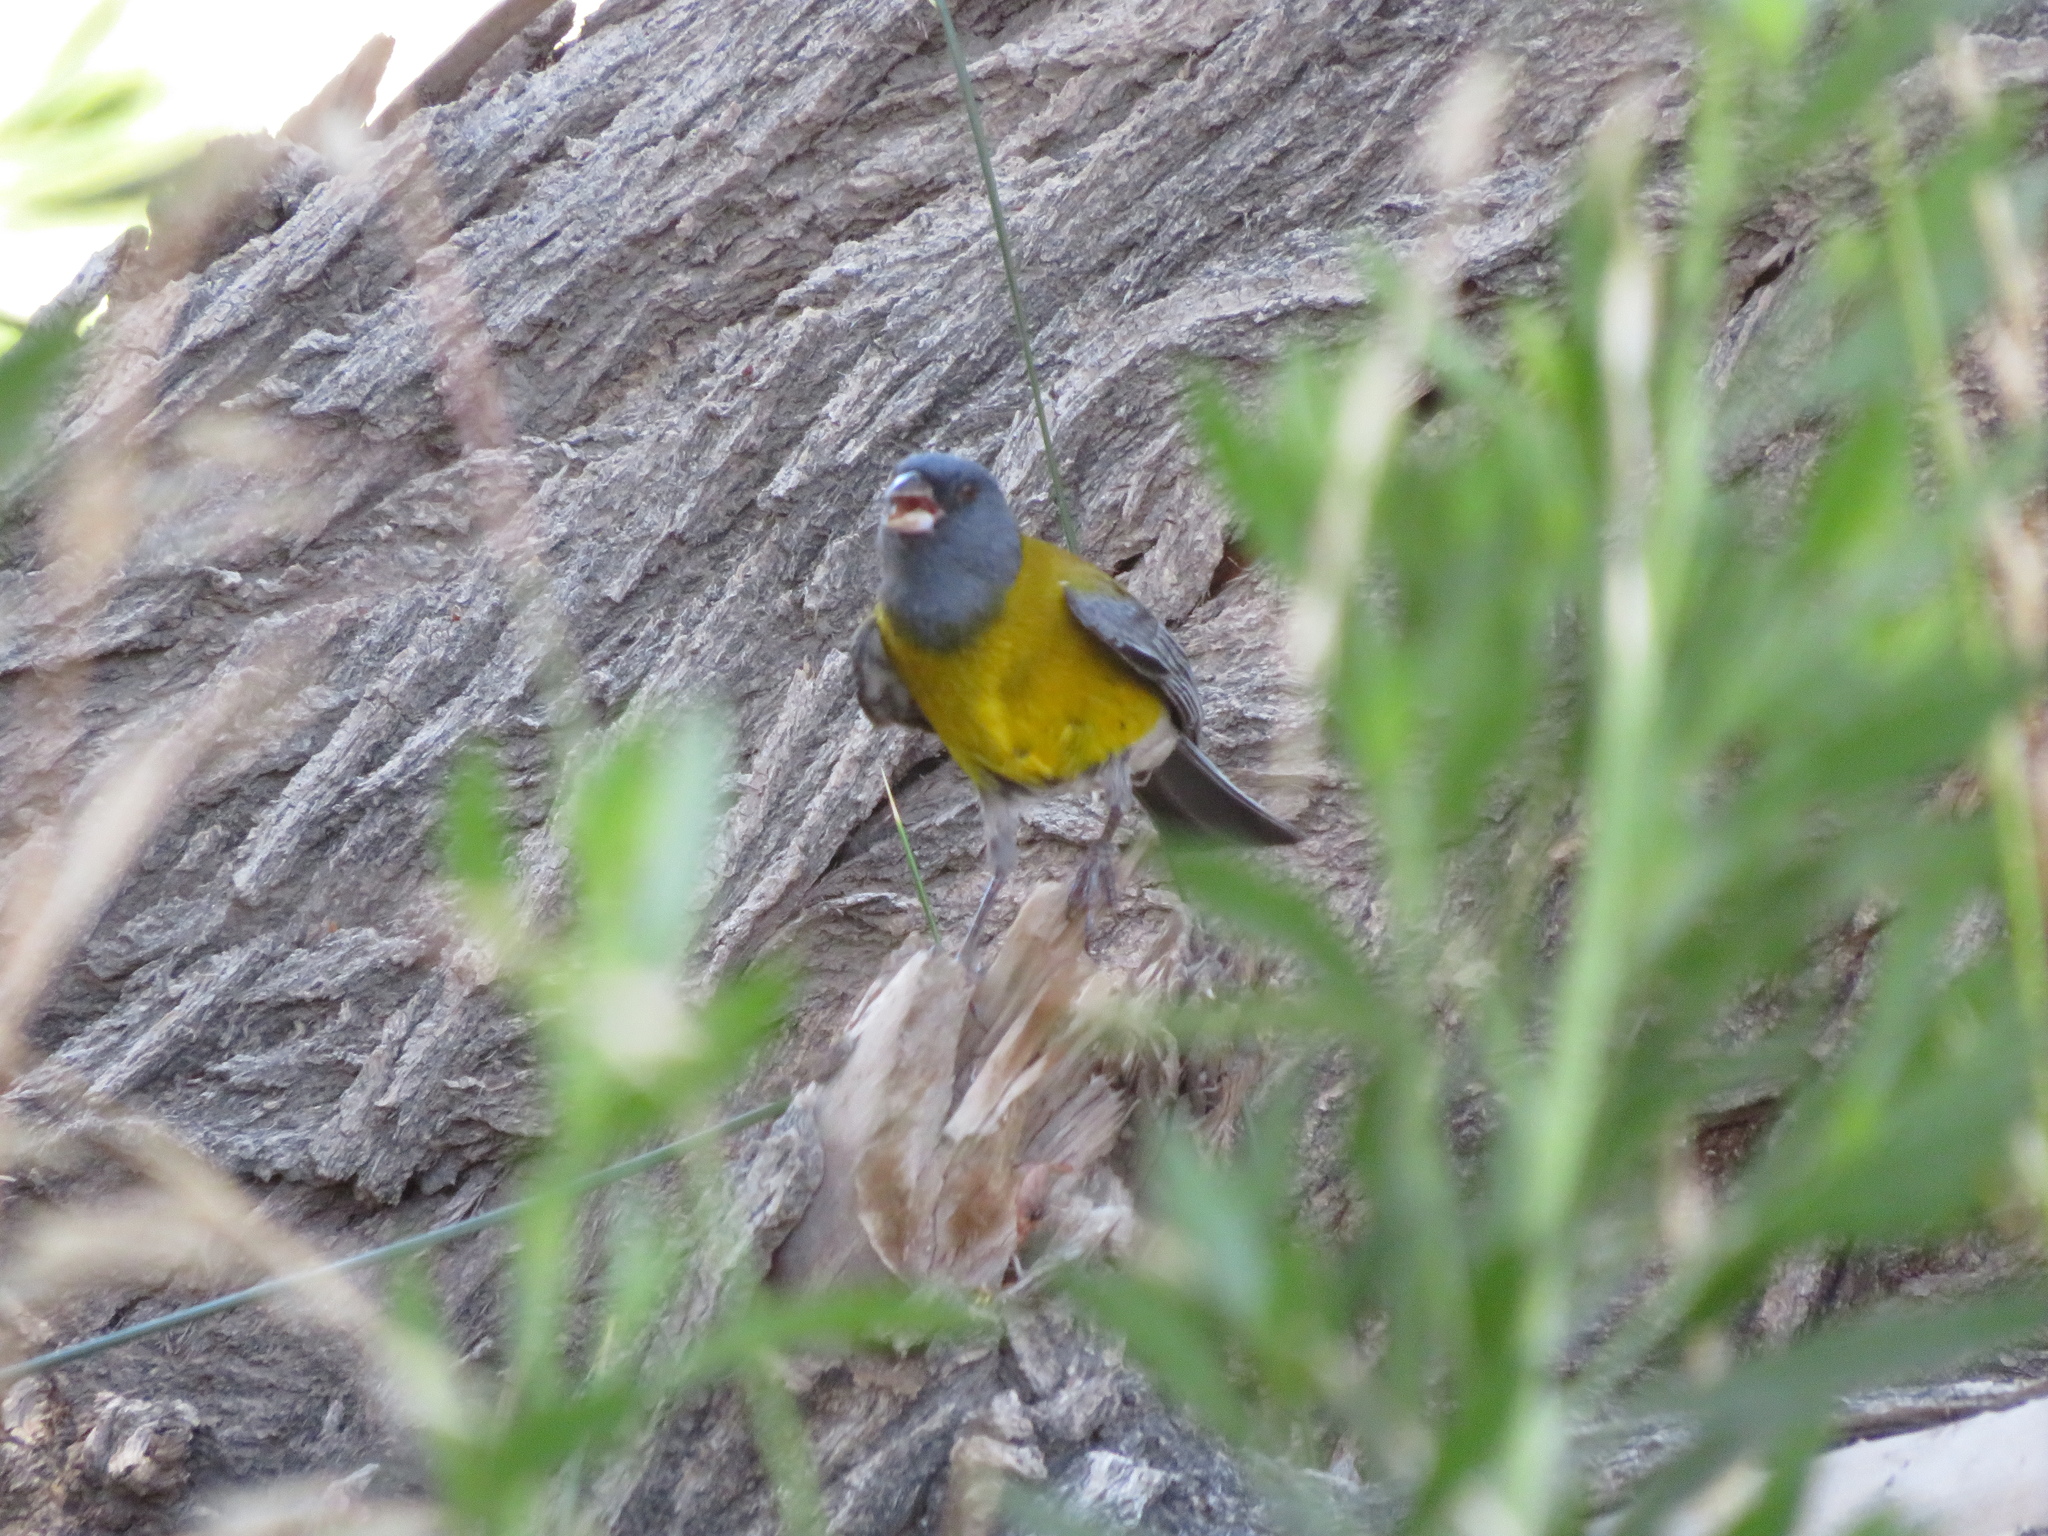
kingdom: Animalia
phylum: Chordata
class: Aves
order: Passeriformes
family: Thraupidae
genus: Phrygilus
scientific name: Phrygilus gayi
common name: Grey-hooded sierra finch
